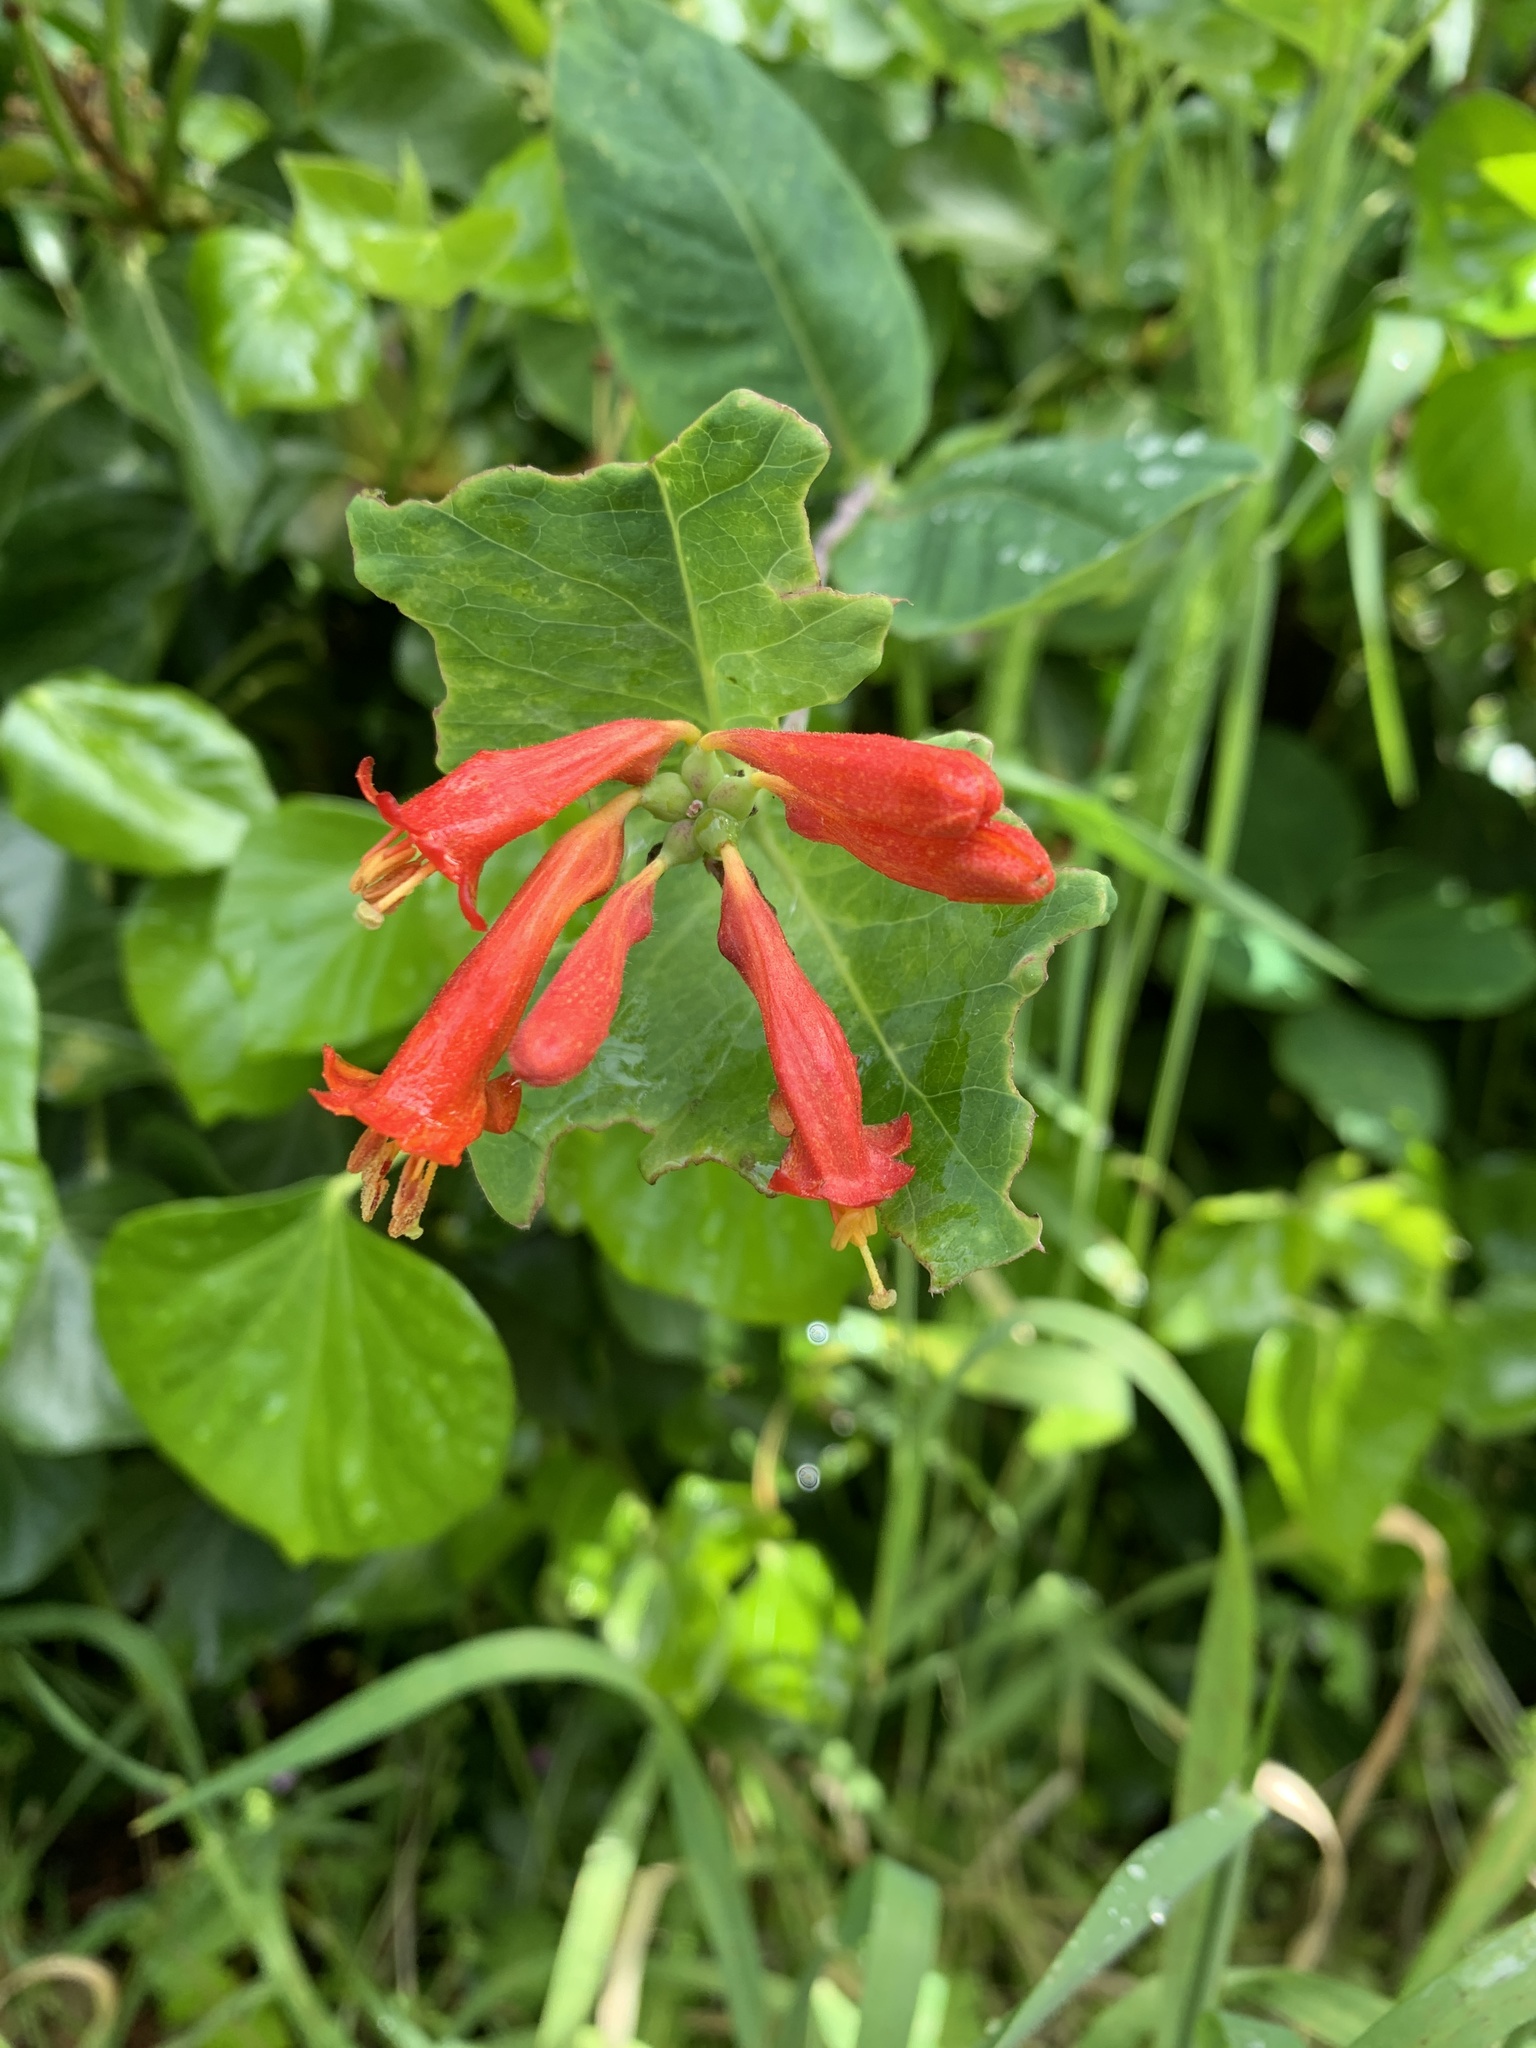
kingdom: Plantae
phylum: Tracheophyta
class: Magnoliopsida
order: Dipsacales
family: Caprifoliaceae
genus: Lonicera
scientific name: Lonicera ciliosa
